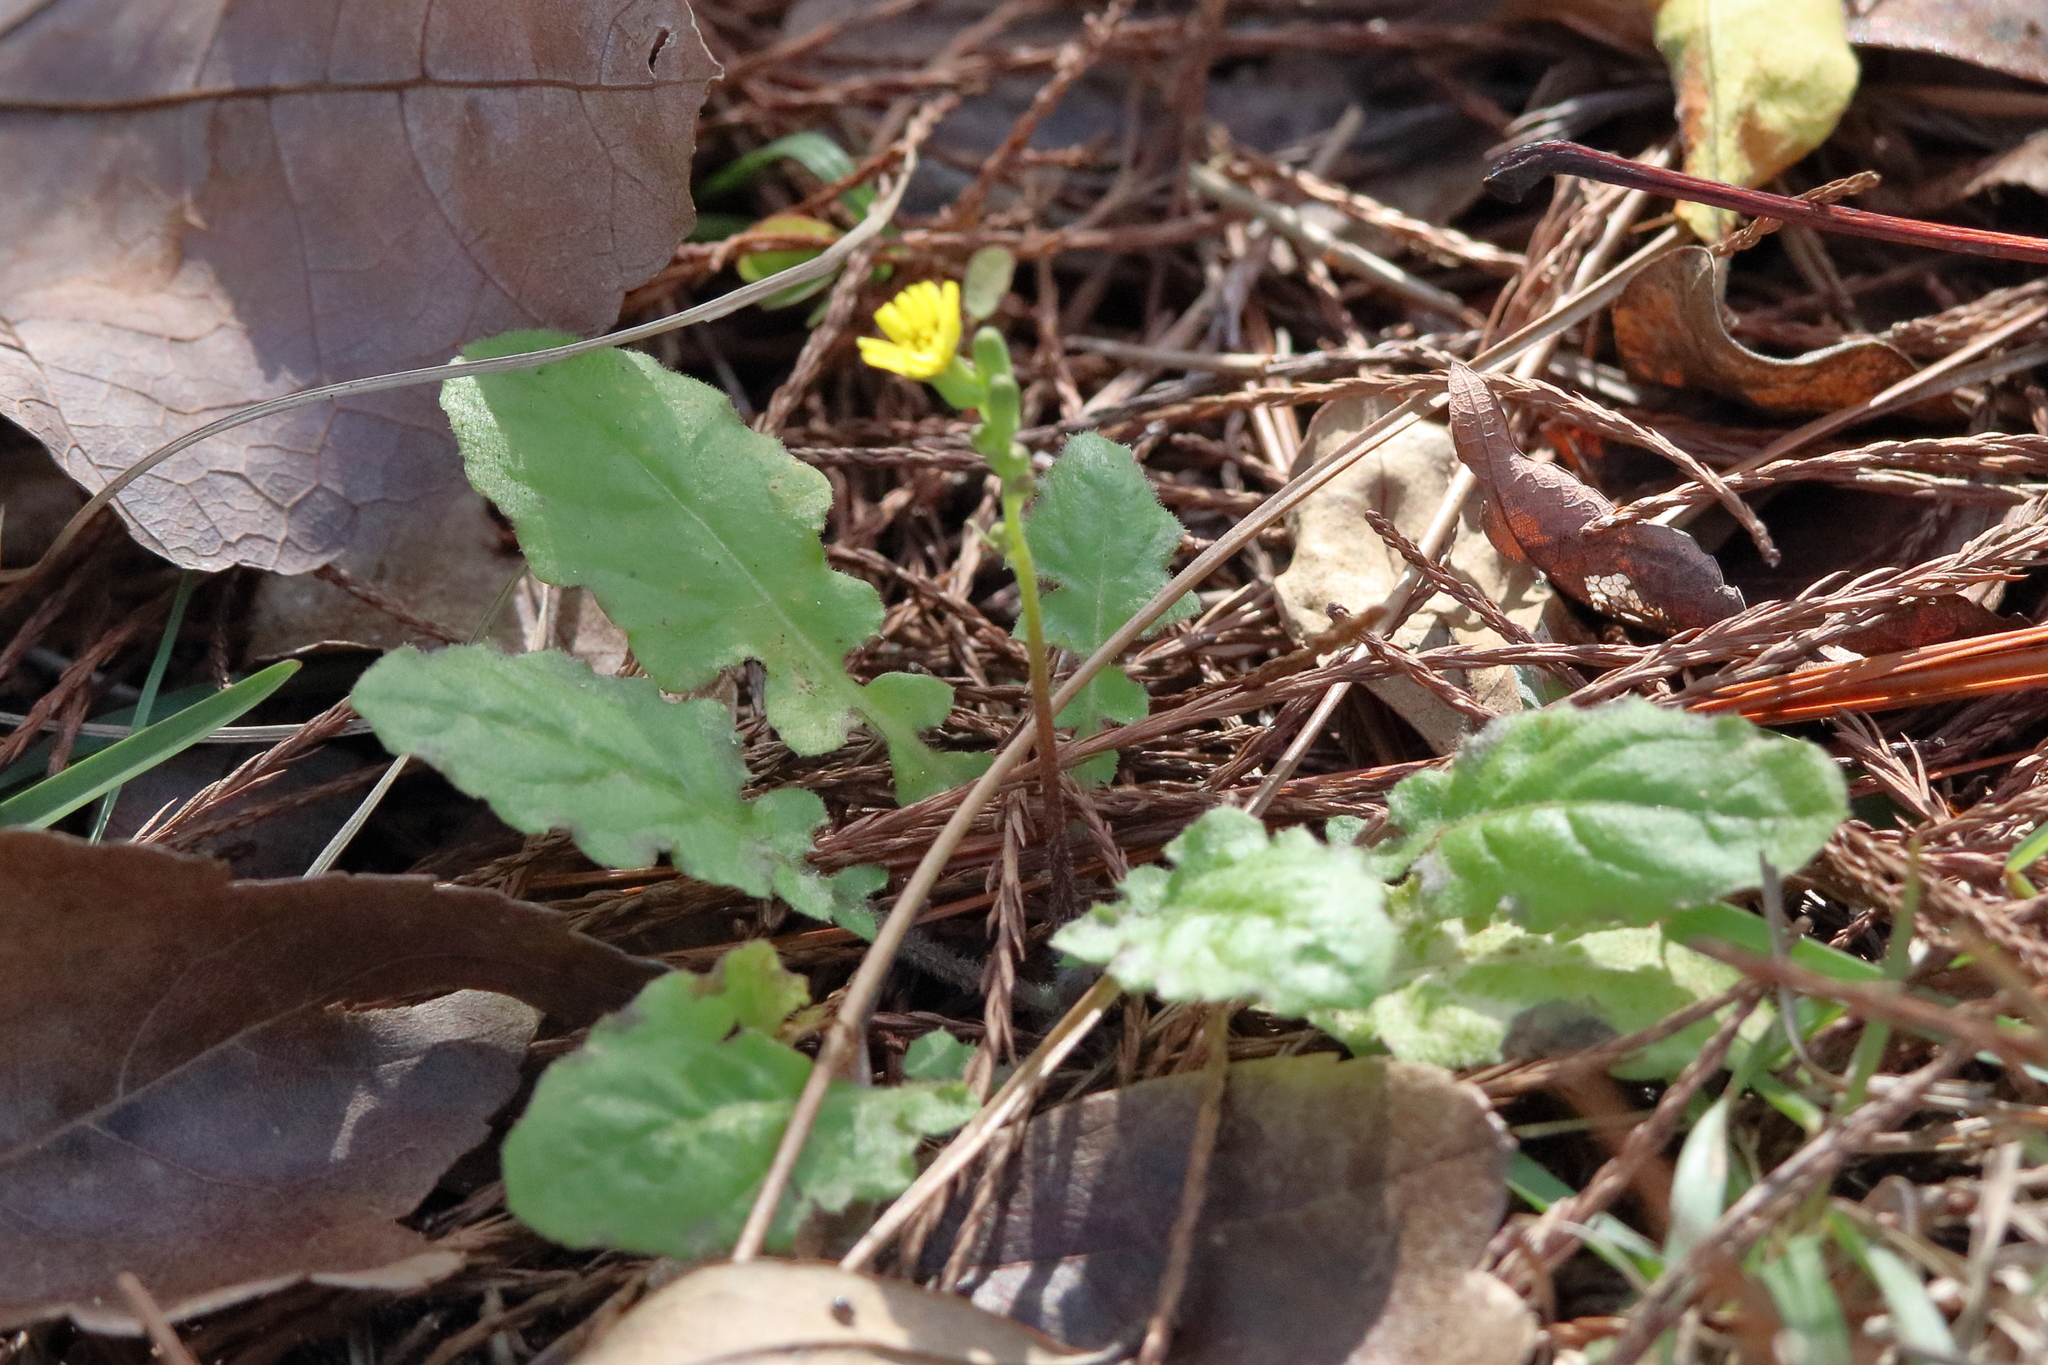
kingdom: Plantae
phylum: Tracheophyta
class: Magnoliopsida
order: Asterales
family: Asteraceae
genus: Youngia
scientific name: Youngia japonica
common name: Oriental false hawksbeard
